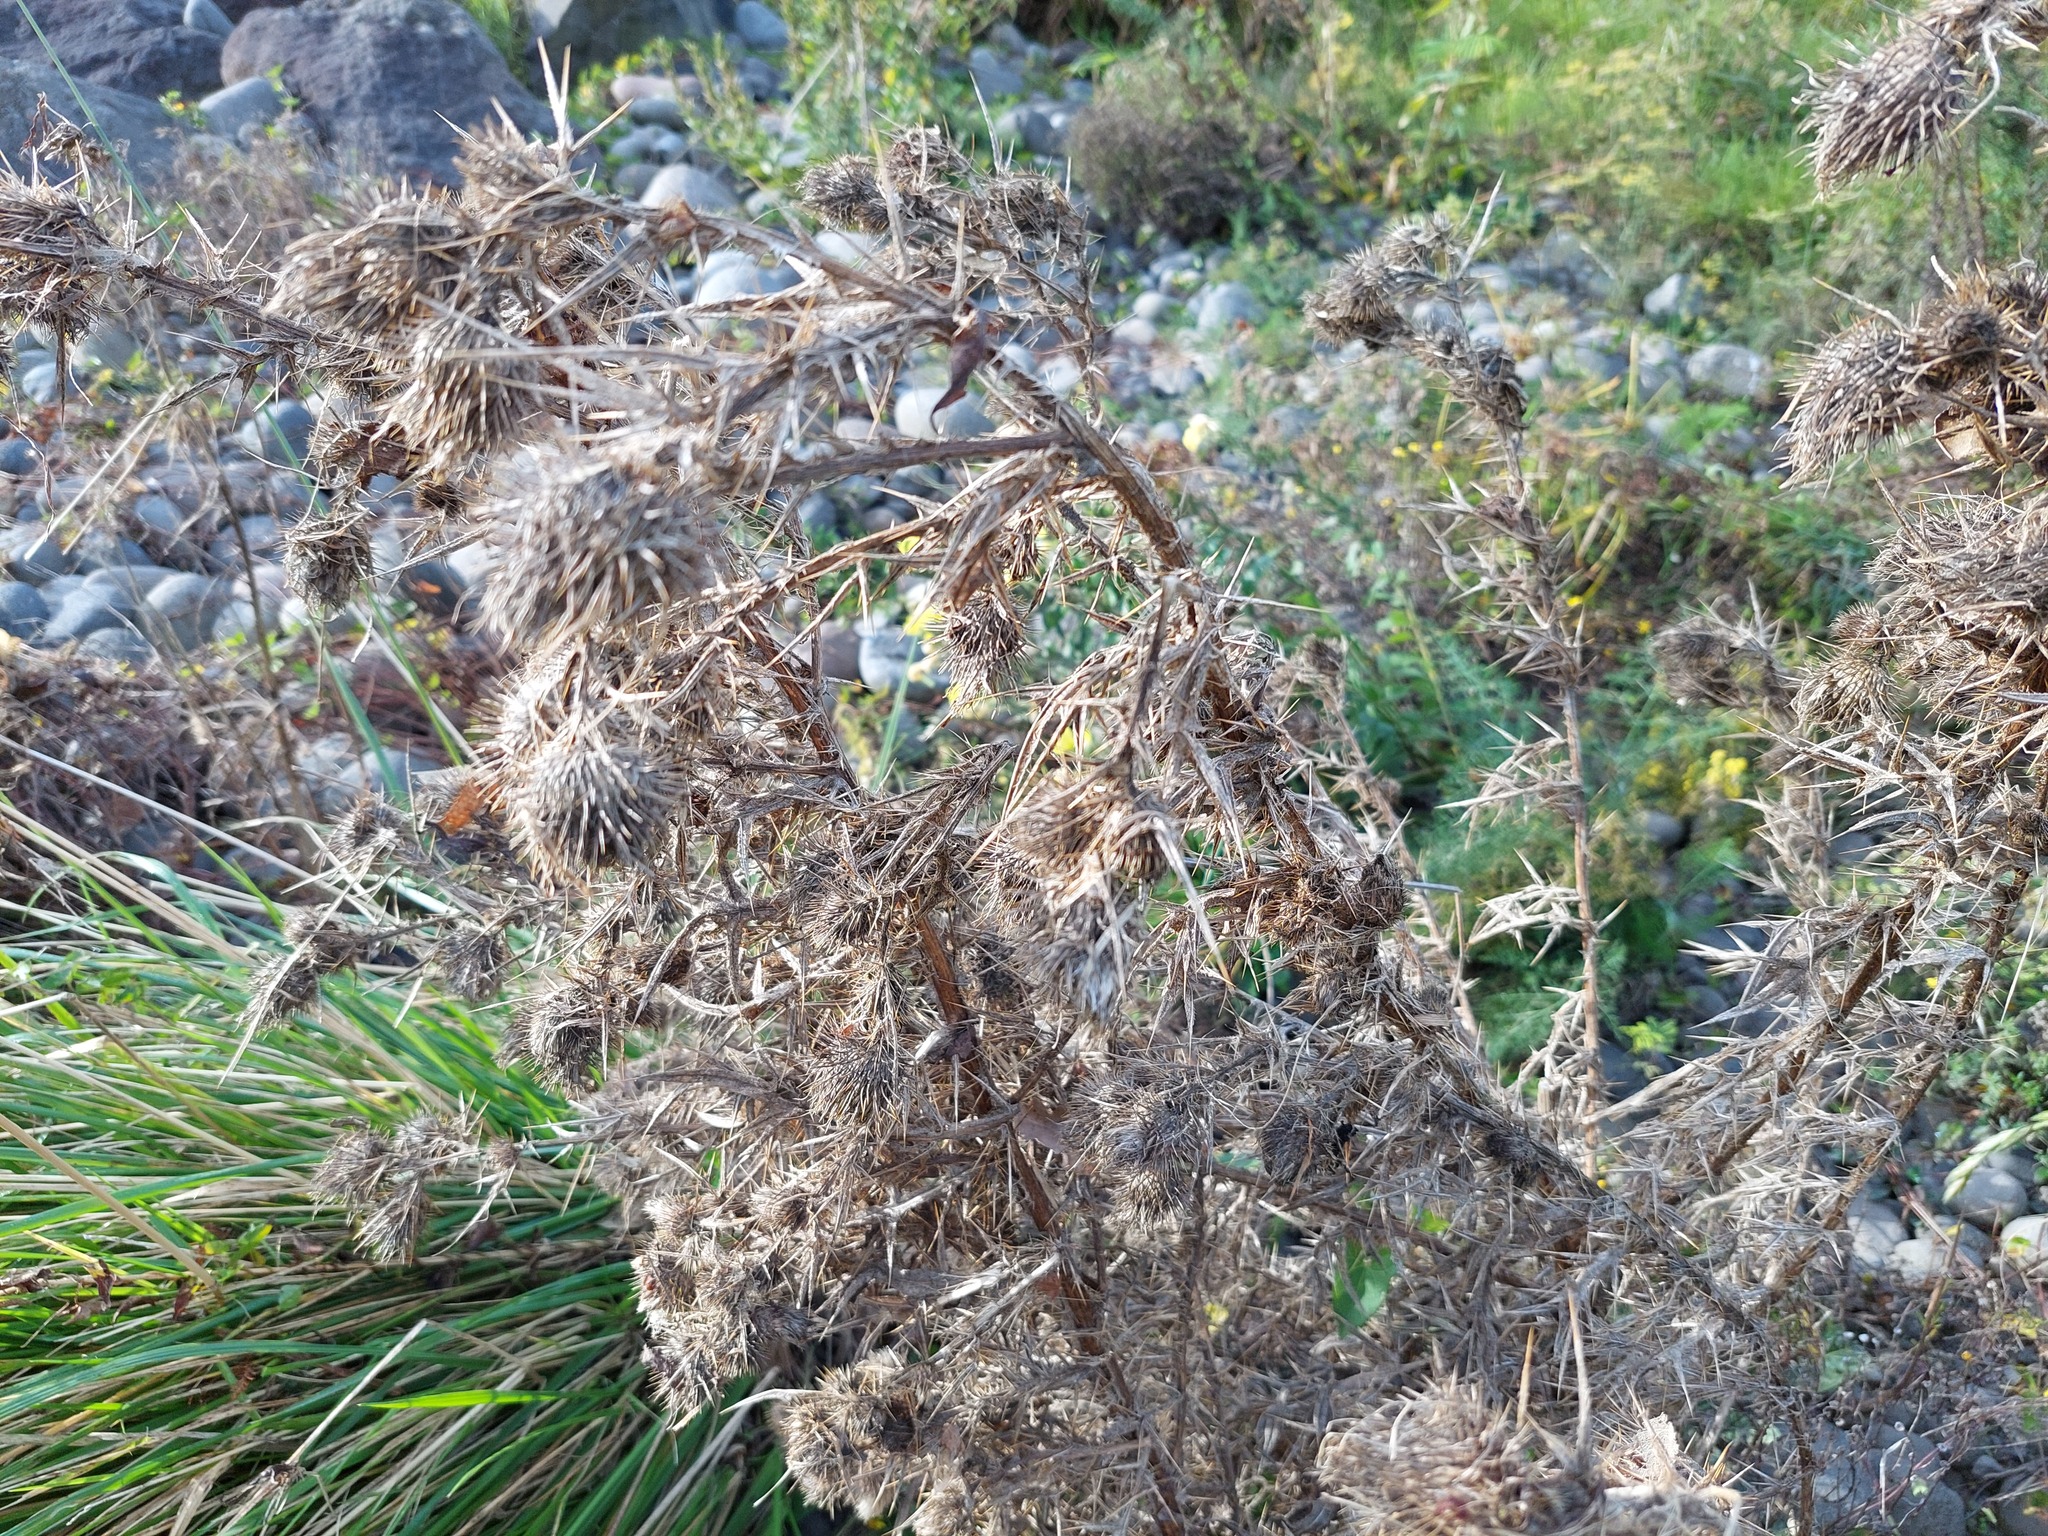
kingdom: Plantae
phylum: Tracheophyta
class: Magnoliopsida
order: Asterales
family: Asteraceae
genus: Cirsium
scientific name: Cirsium vulgare
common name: Bull thistle
